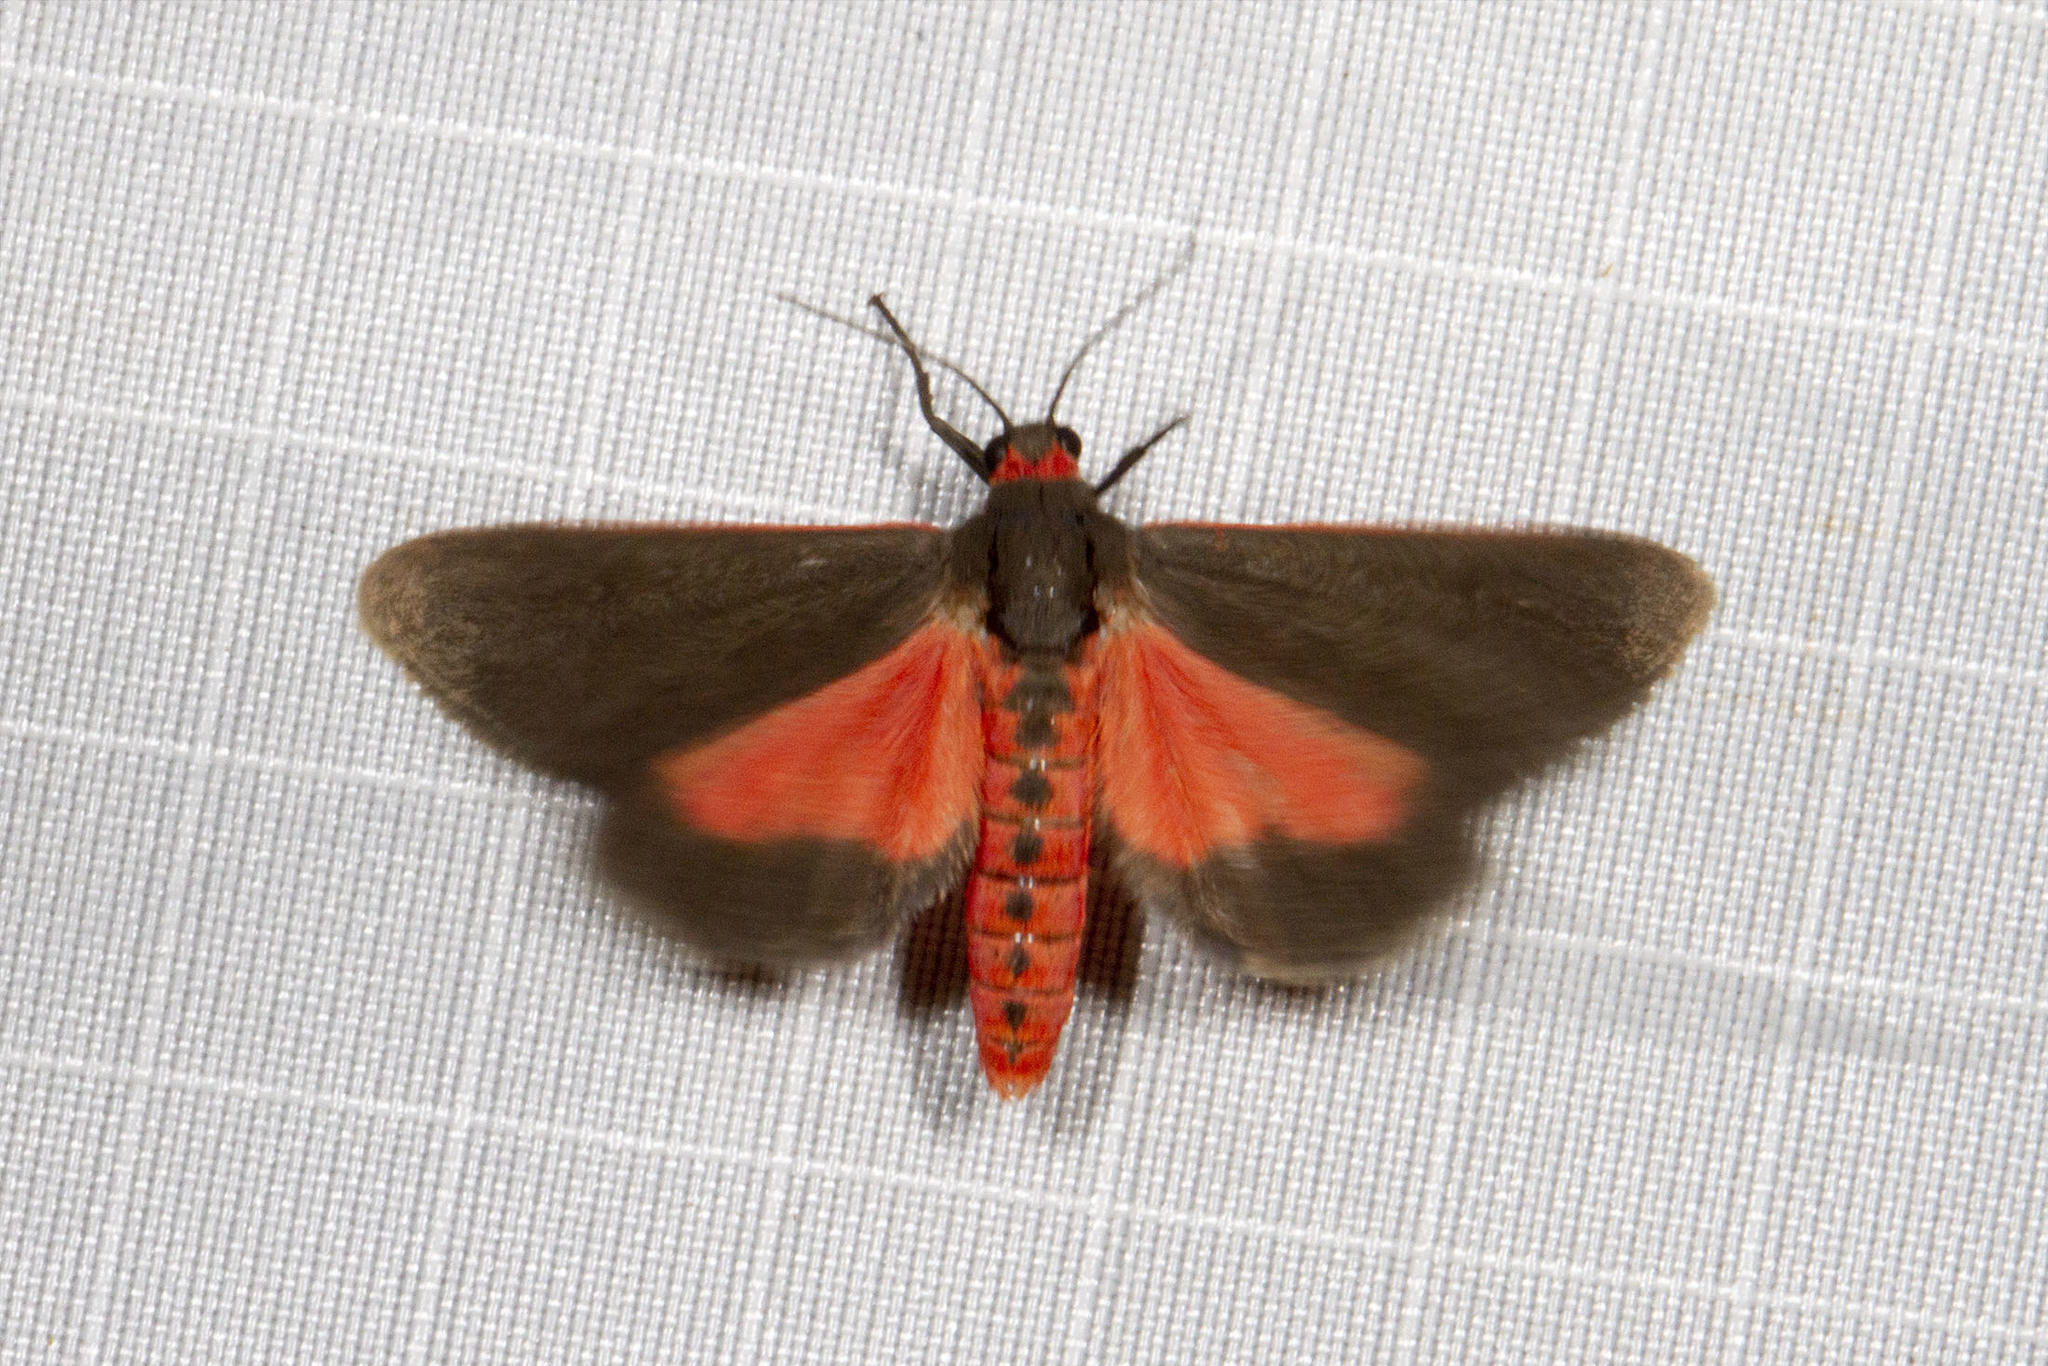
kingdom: Animalia
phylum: Arthropoda
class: Insecta
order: Lepidoptera
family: Erebidae
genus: Virbia
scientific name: Virbia laeta
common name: Joyful holomelina moth
